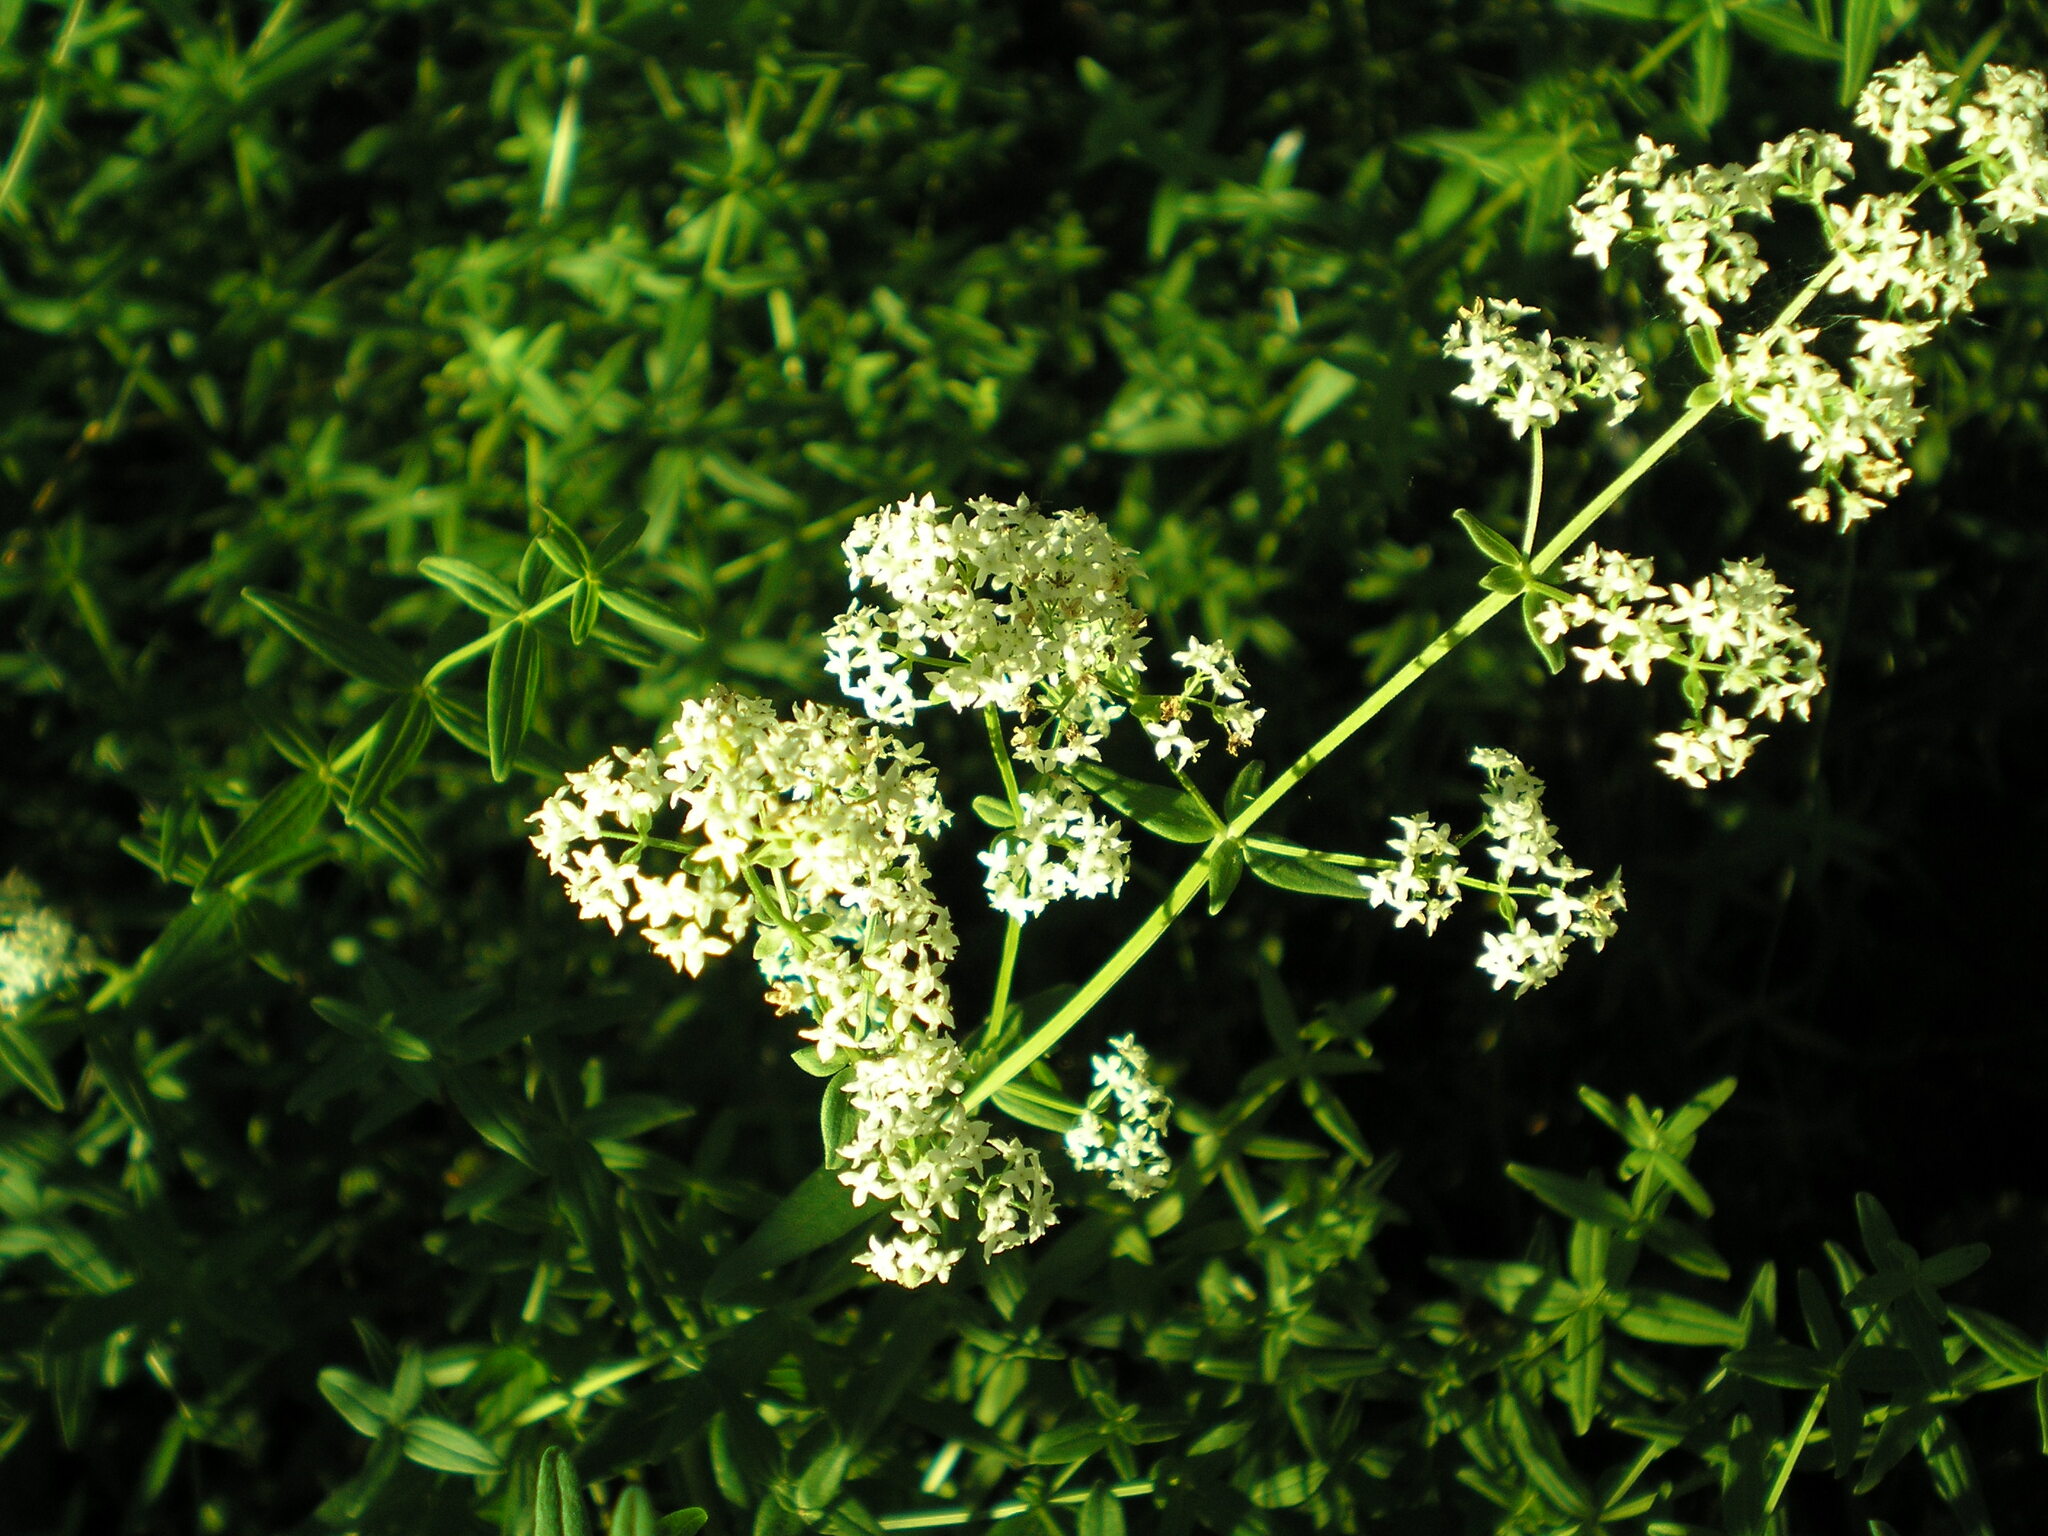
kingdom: Plantae
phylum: Tracheophyta
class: Magnoliopsida
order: Gentianales
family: Rubiaceae
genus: Galium
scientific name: Galium boreale
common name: Northern bedstraw
